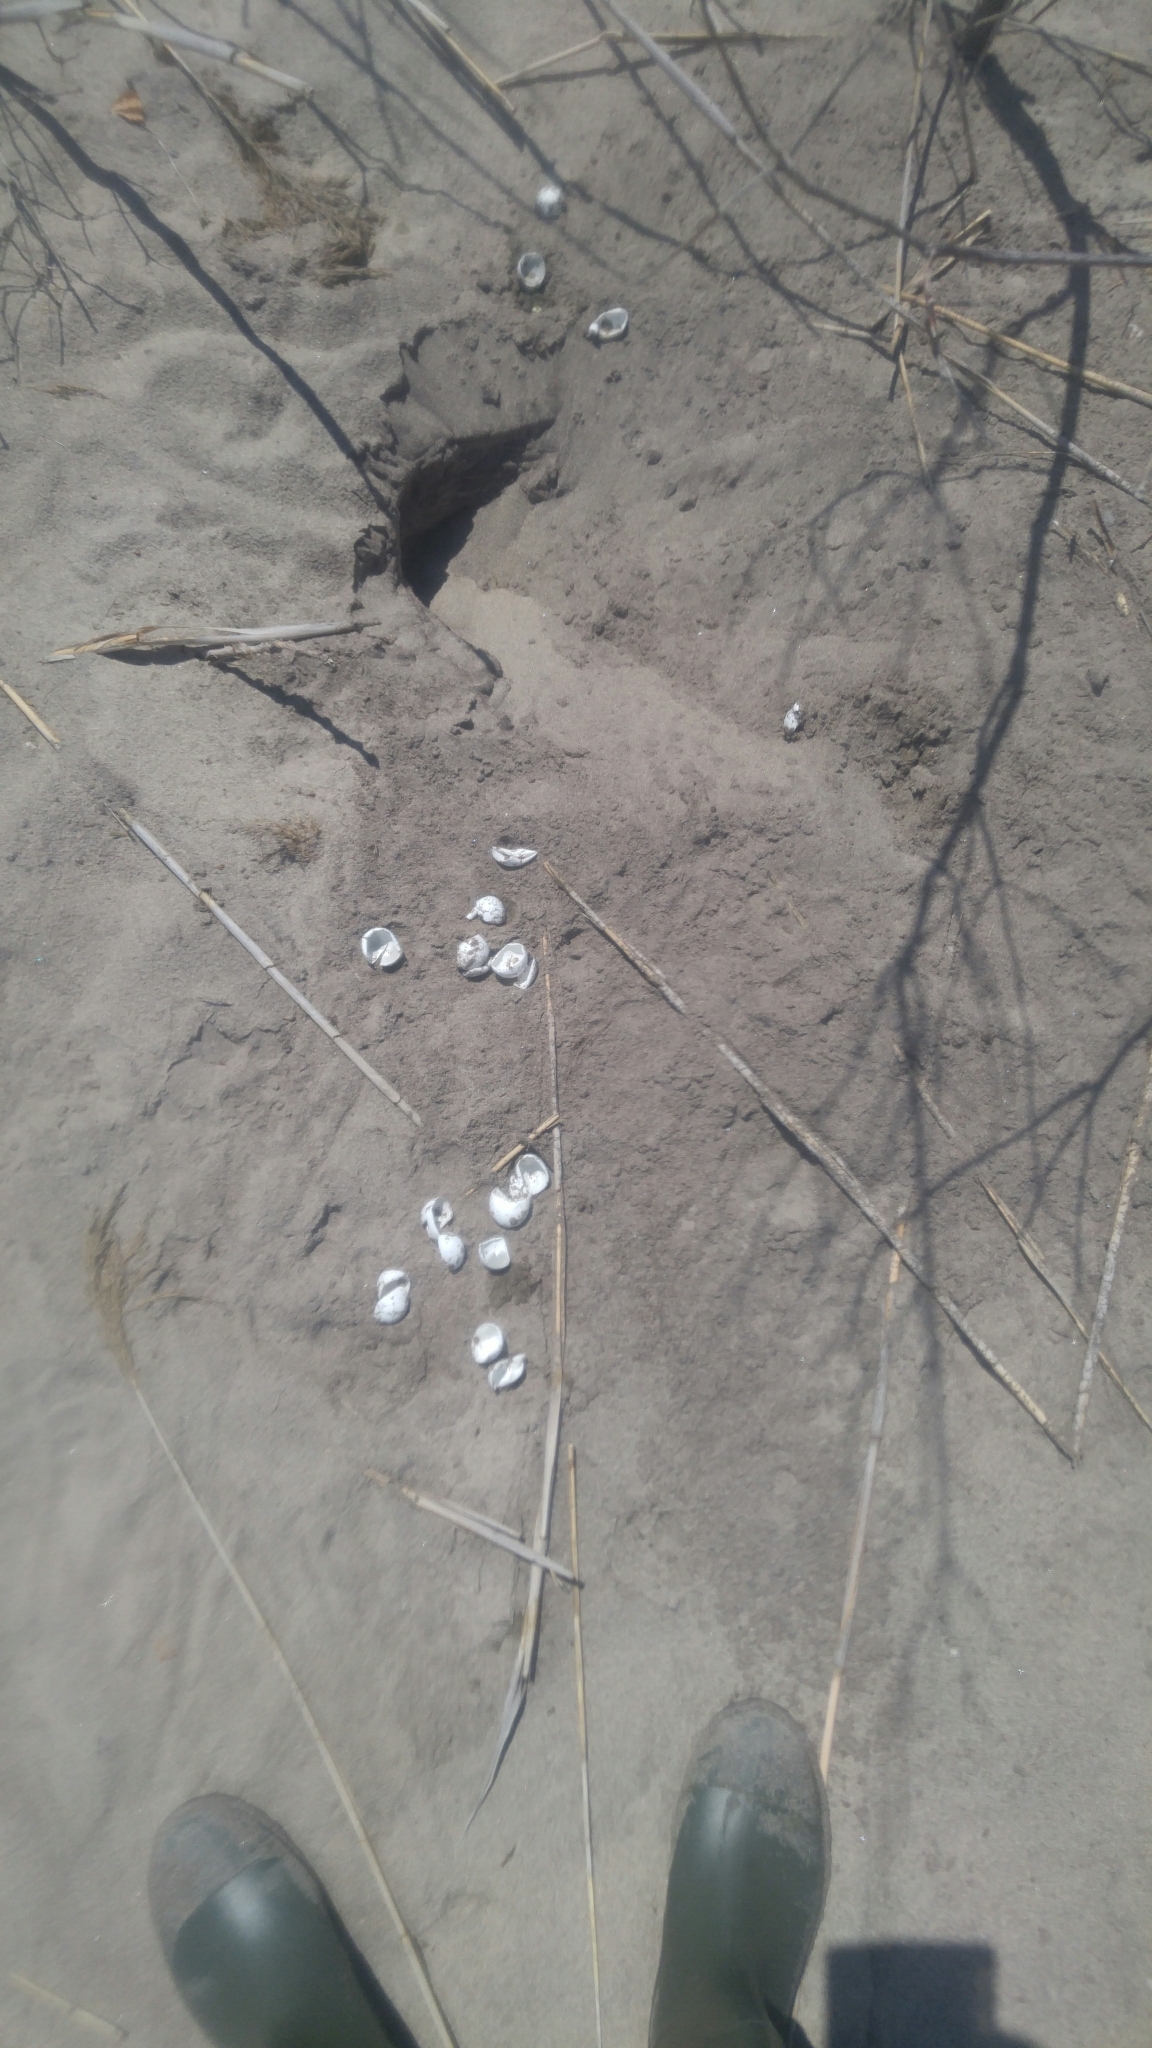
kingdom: Animalia
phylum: Chordata
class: Testudines
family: Chelydridae
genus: Chelydra
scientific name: Chelydra serpentina
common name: Common snapping turtle
